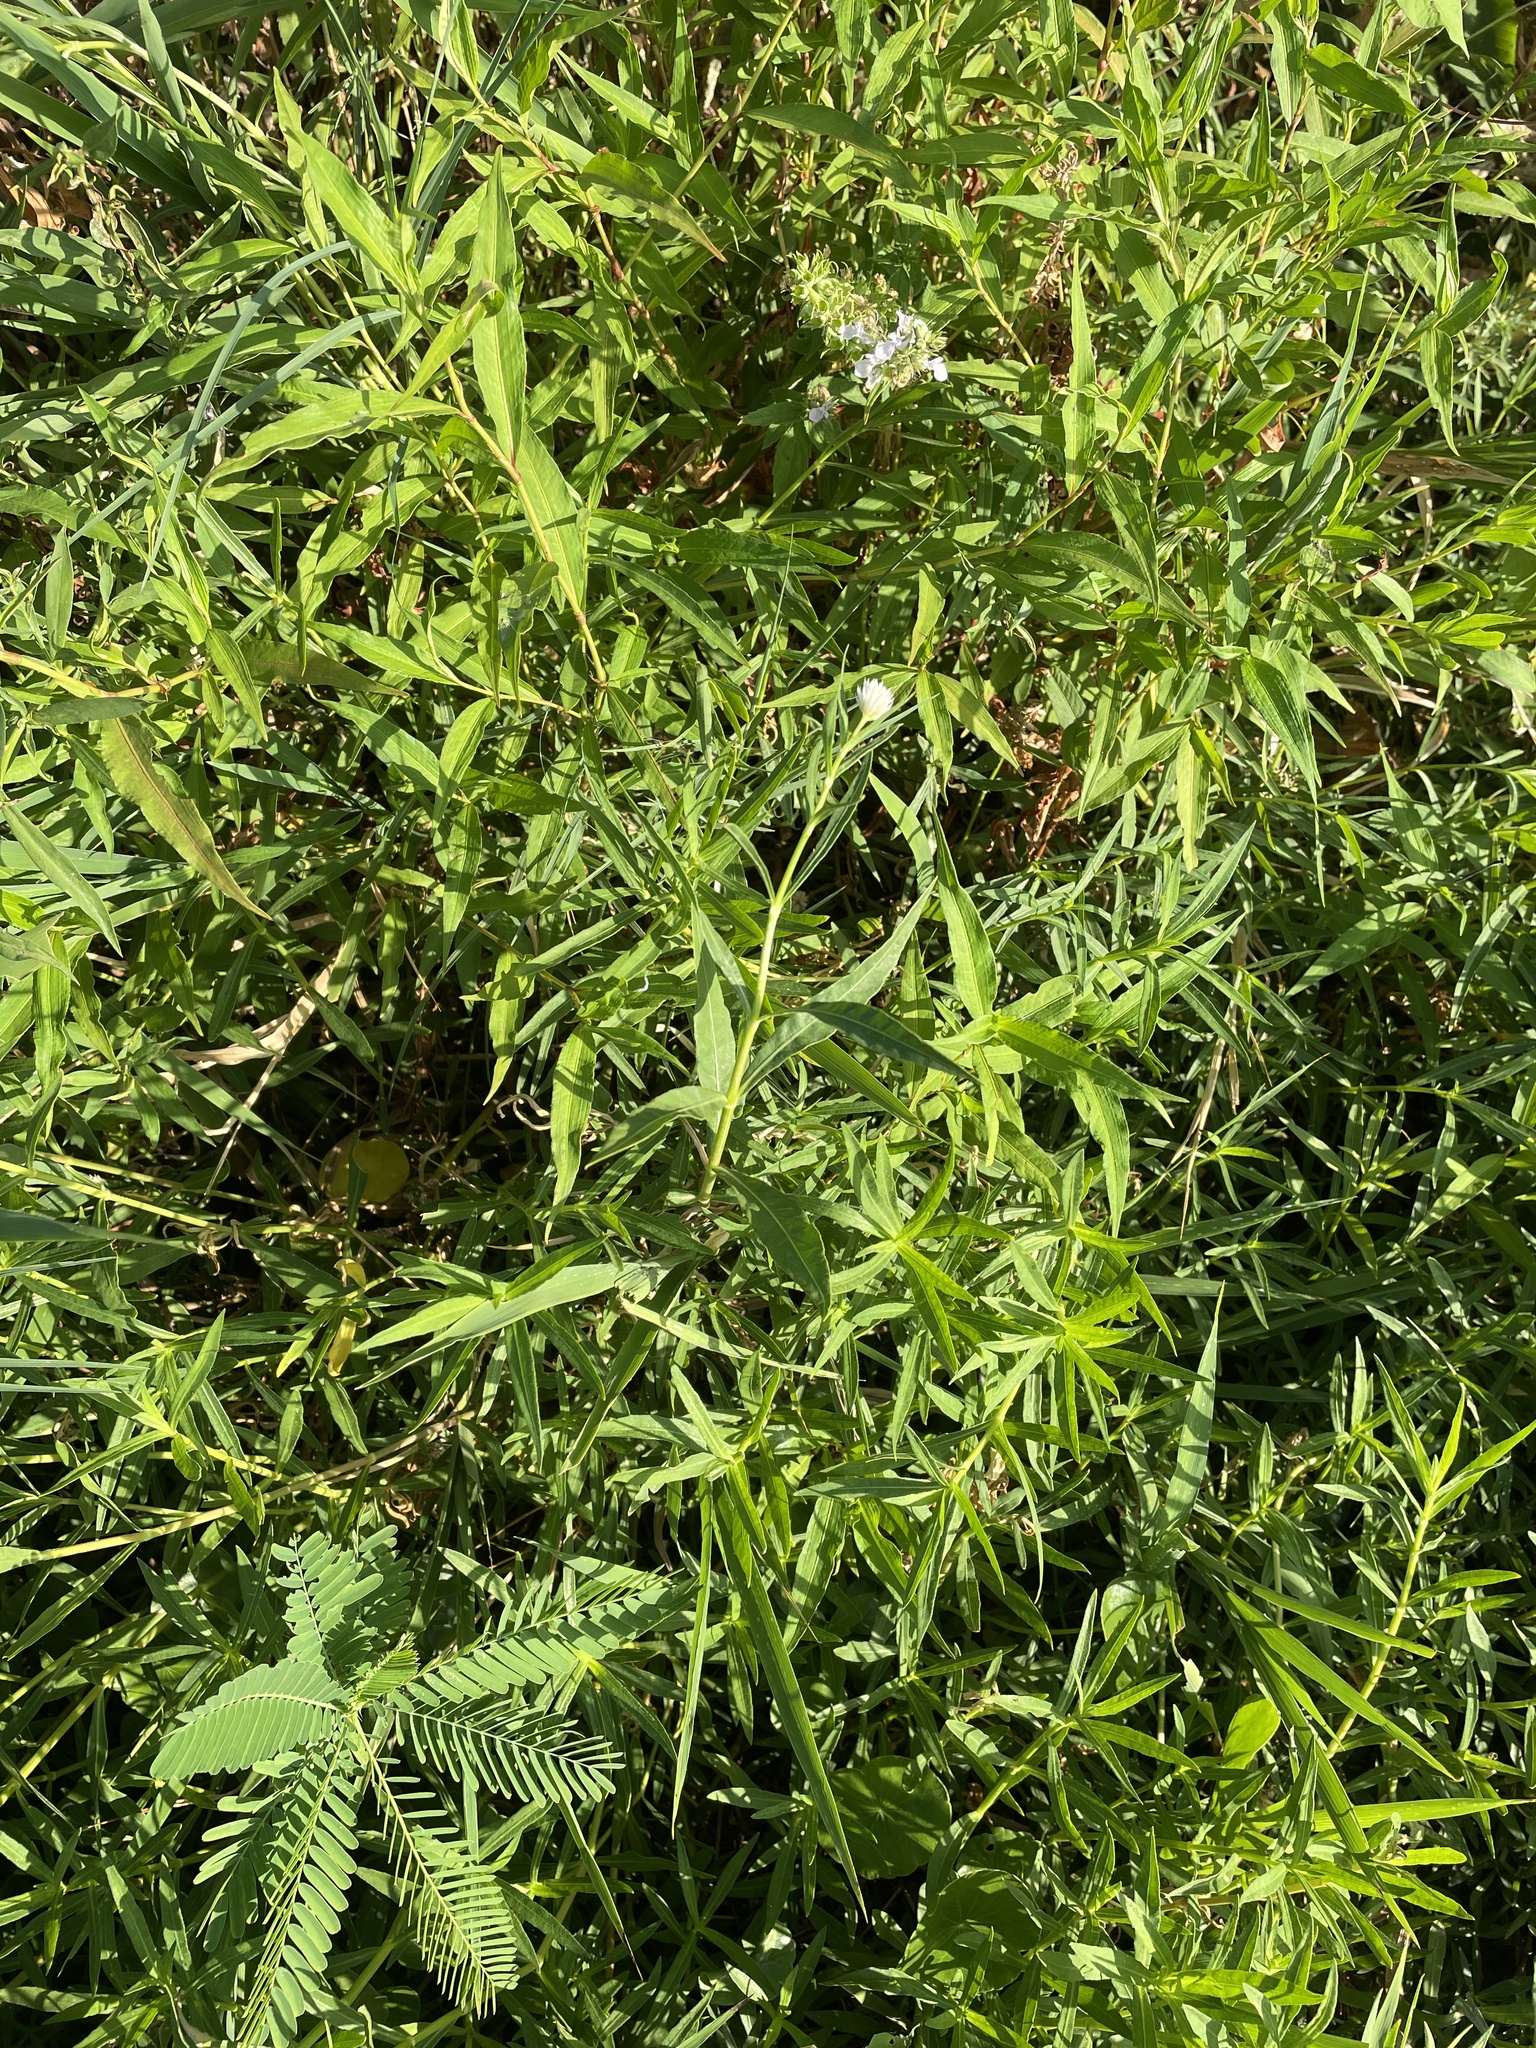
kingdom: Plantae
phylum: Tracheophyta
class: Magnoliopsida
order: Caryophyllales
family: Amaranthaceae
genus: Alternanthera
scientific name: Alternanthera philoxeroides
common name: Alligatorweed
